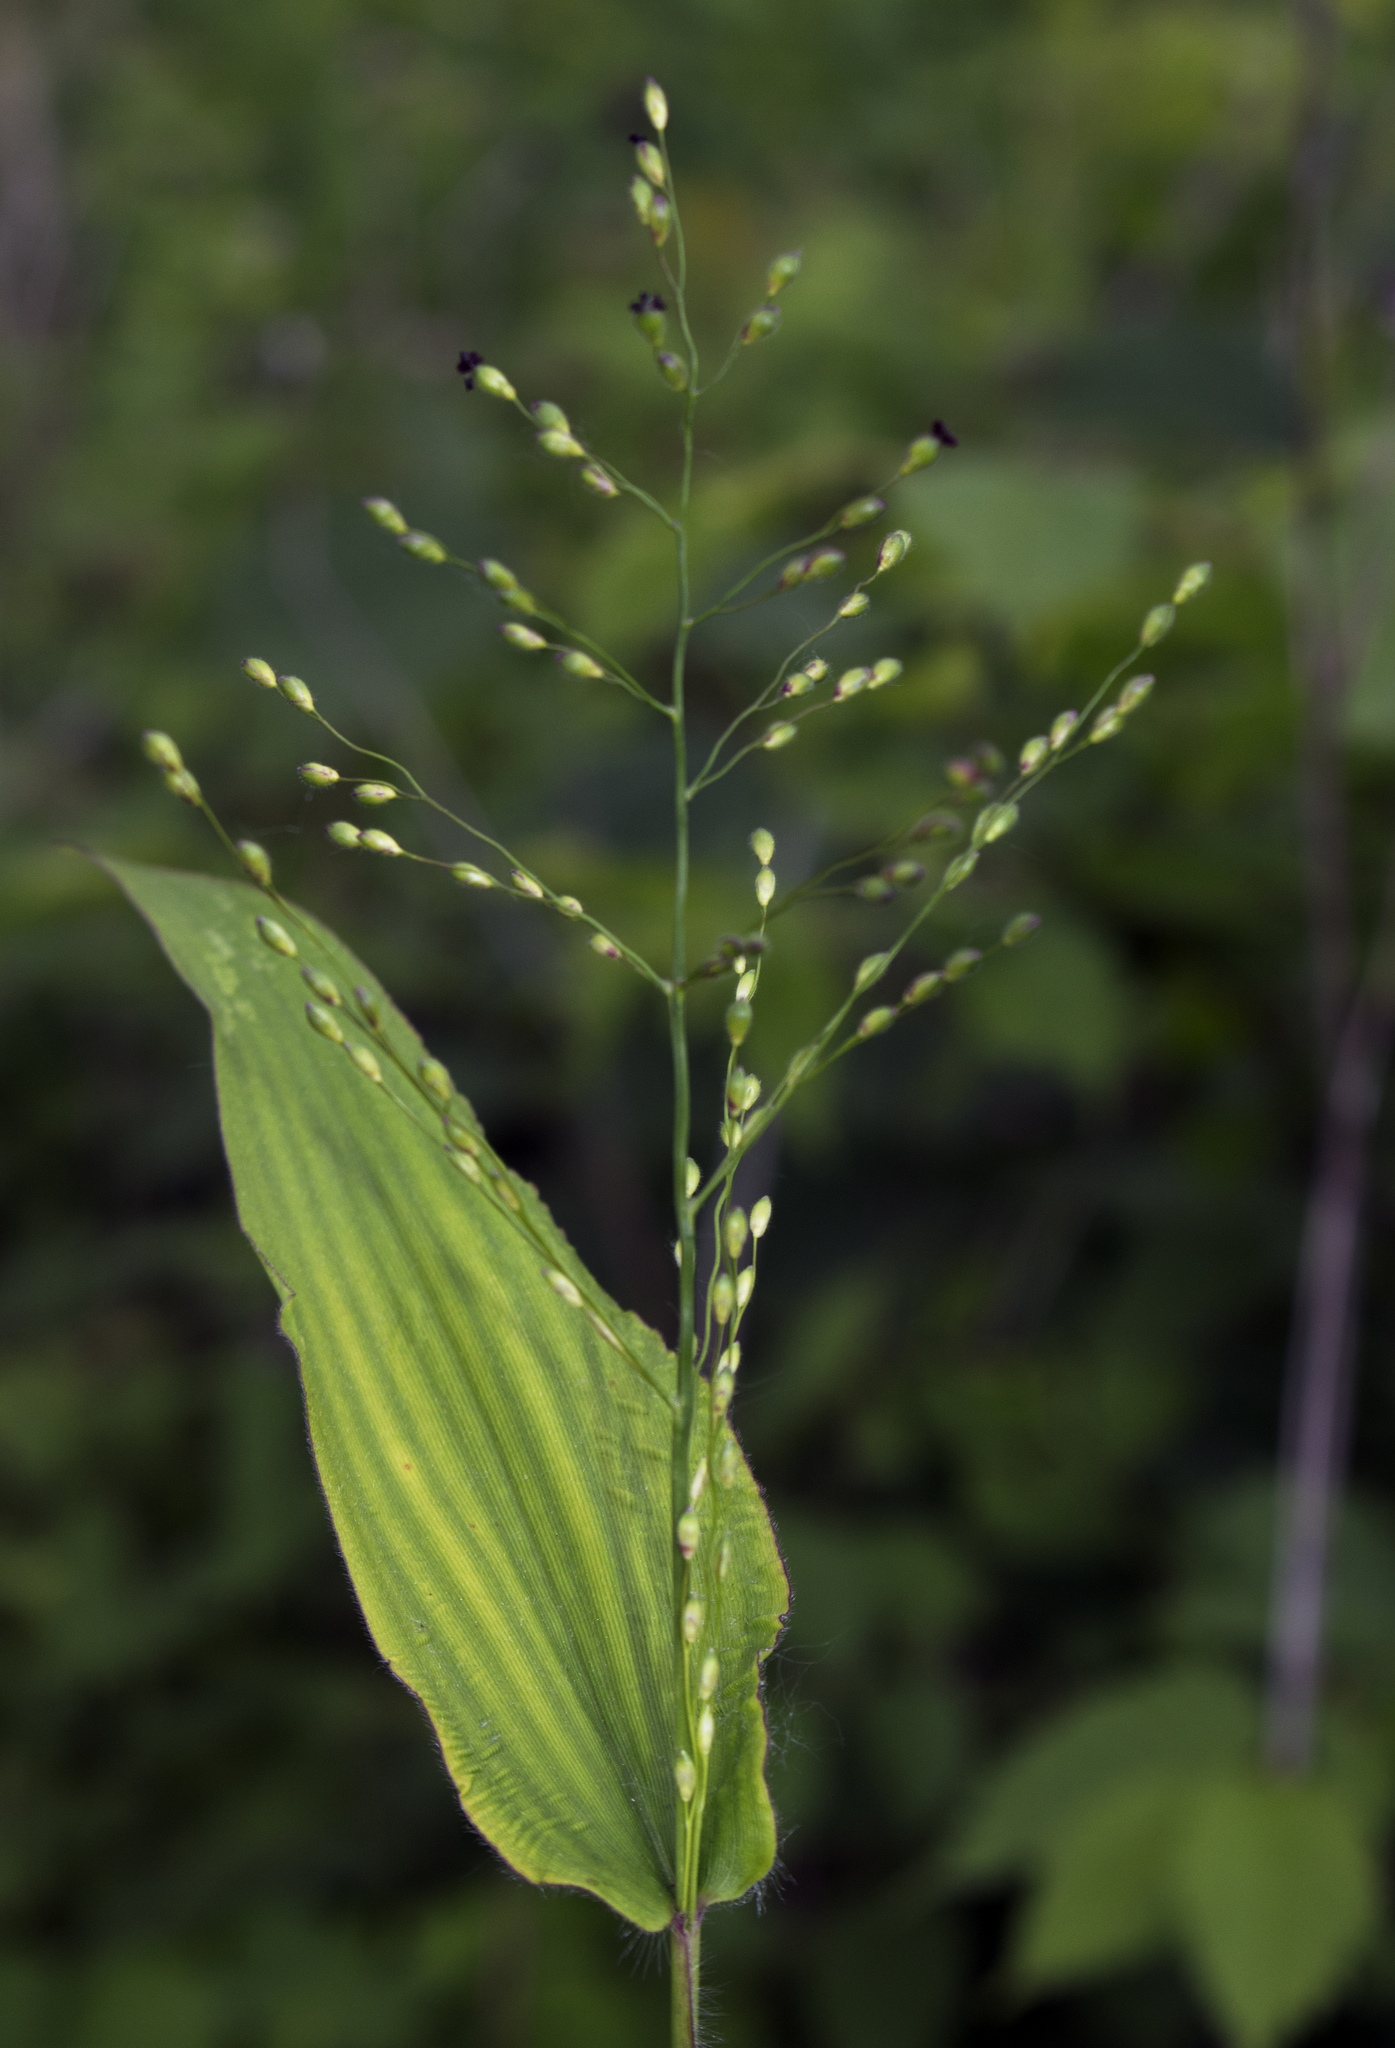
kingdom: Plantae
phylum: Tracheophyta
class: Liliopsida
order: Poales
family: Poaceae
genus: Dichanthelium
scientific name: Dichanthelium latifolium
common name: Broad-leaved panicgrass
